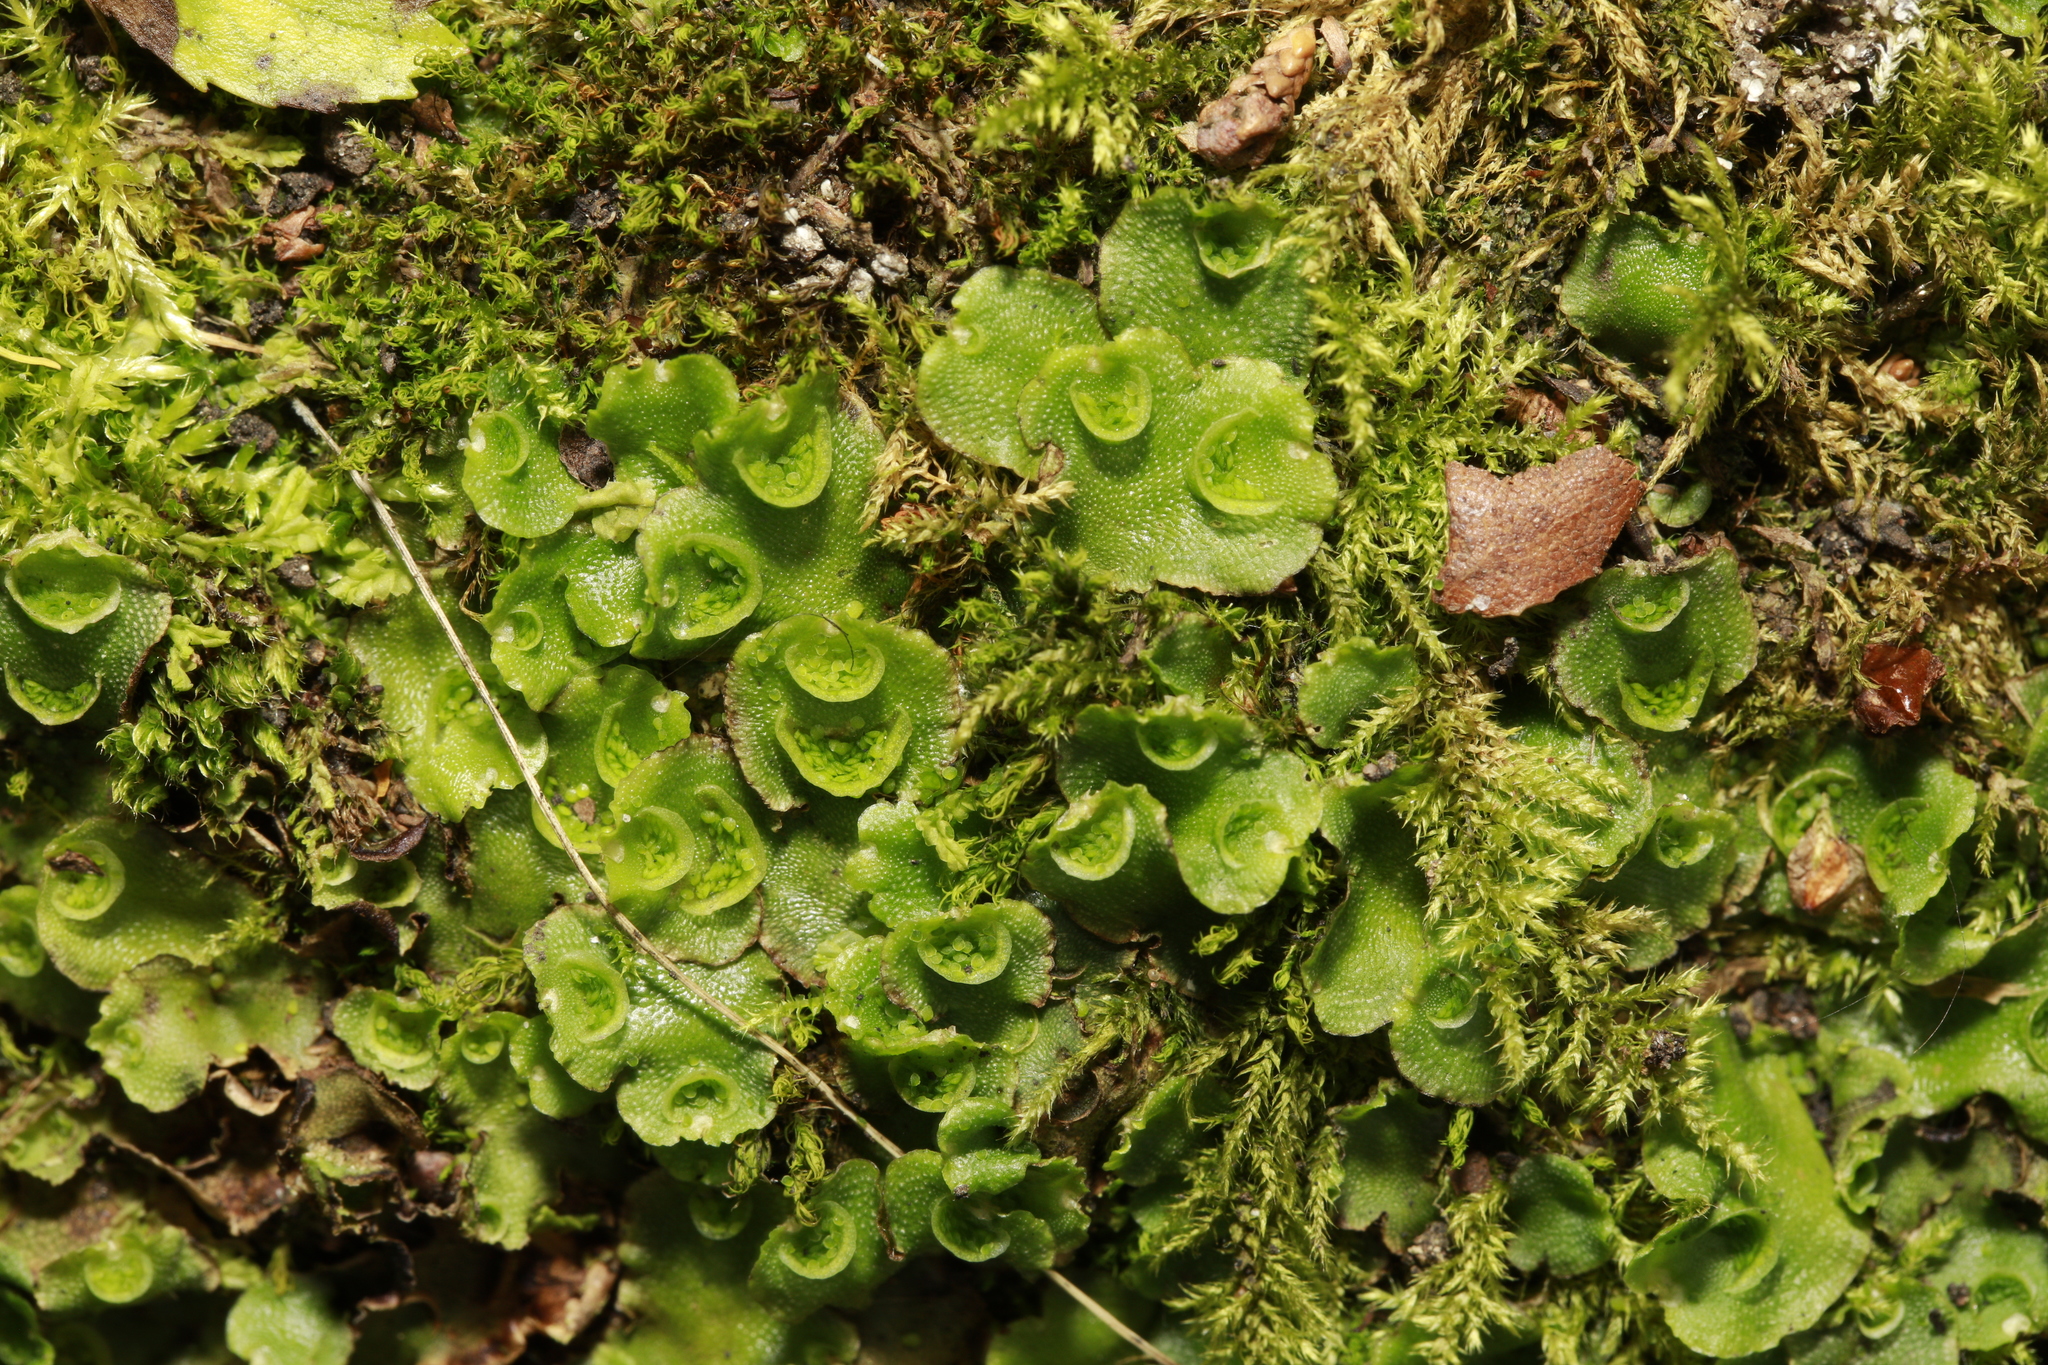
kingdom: Plantae
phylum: Marchantiophyta
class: Marchantiopsida
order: Lunulariales
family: Lunulariaceae
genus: Lunularia
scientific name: Lunularia cruciata
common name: Crescent-cup liverwort
